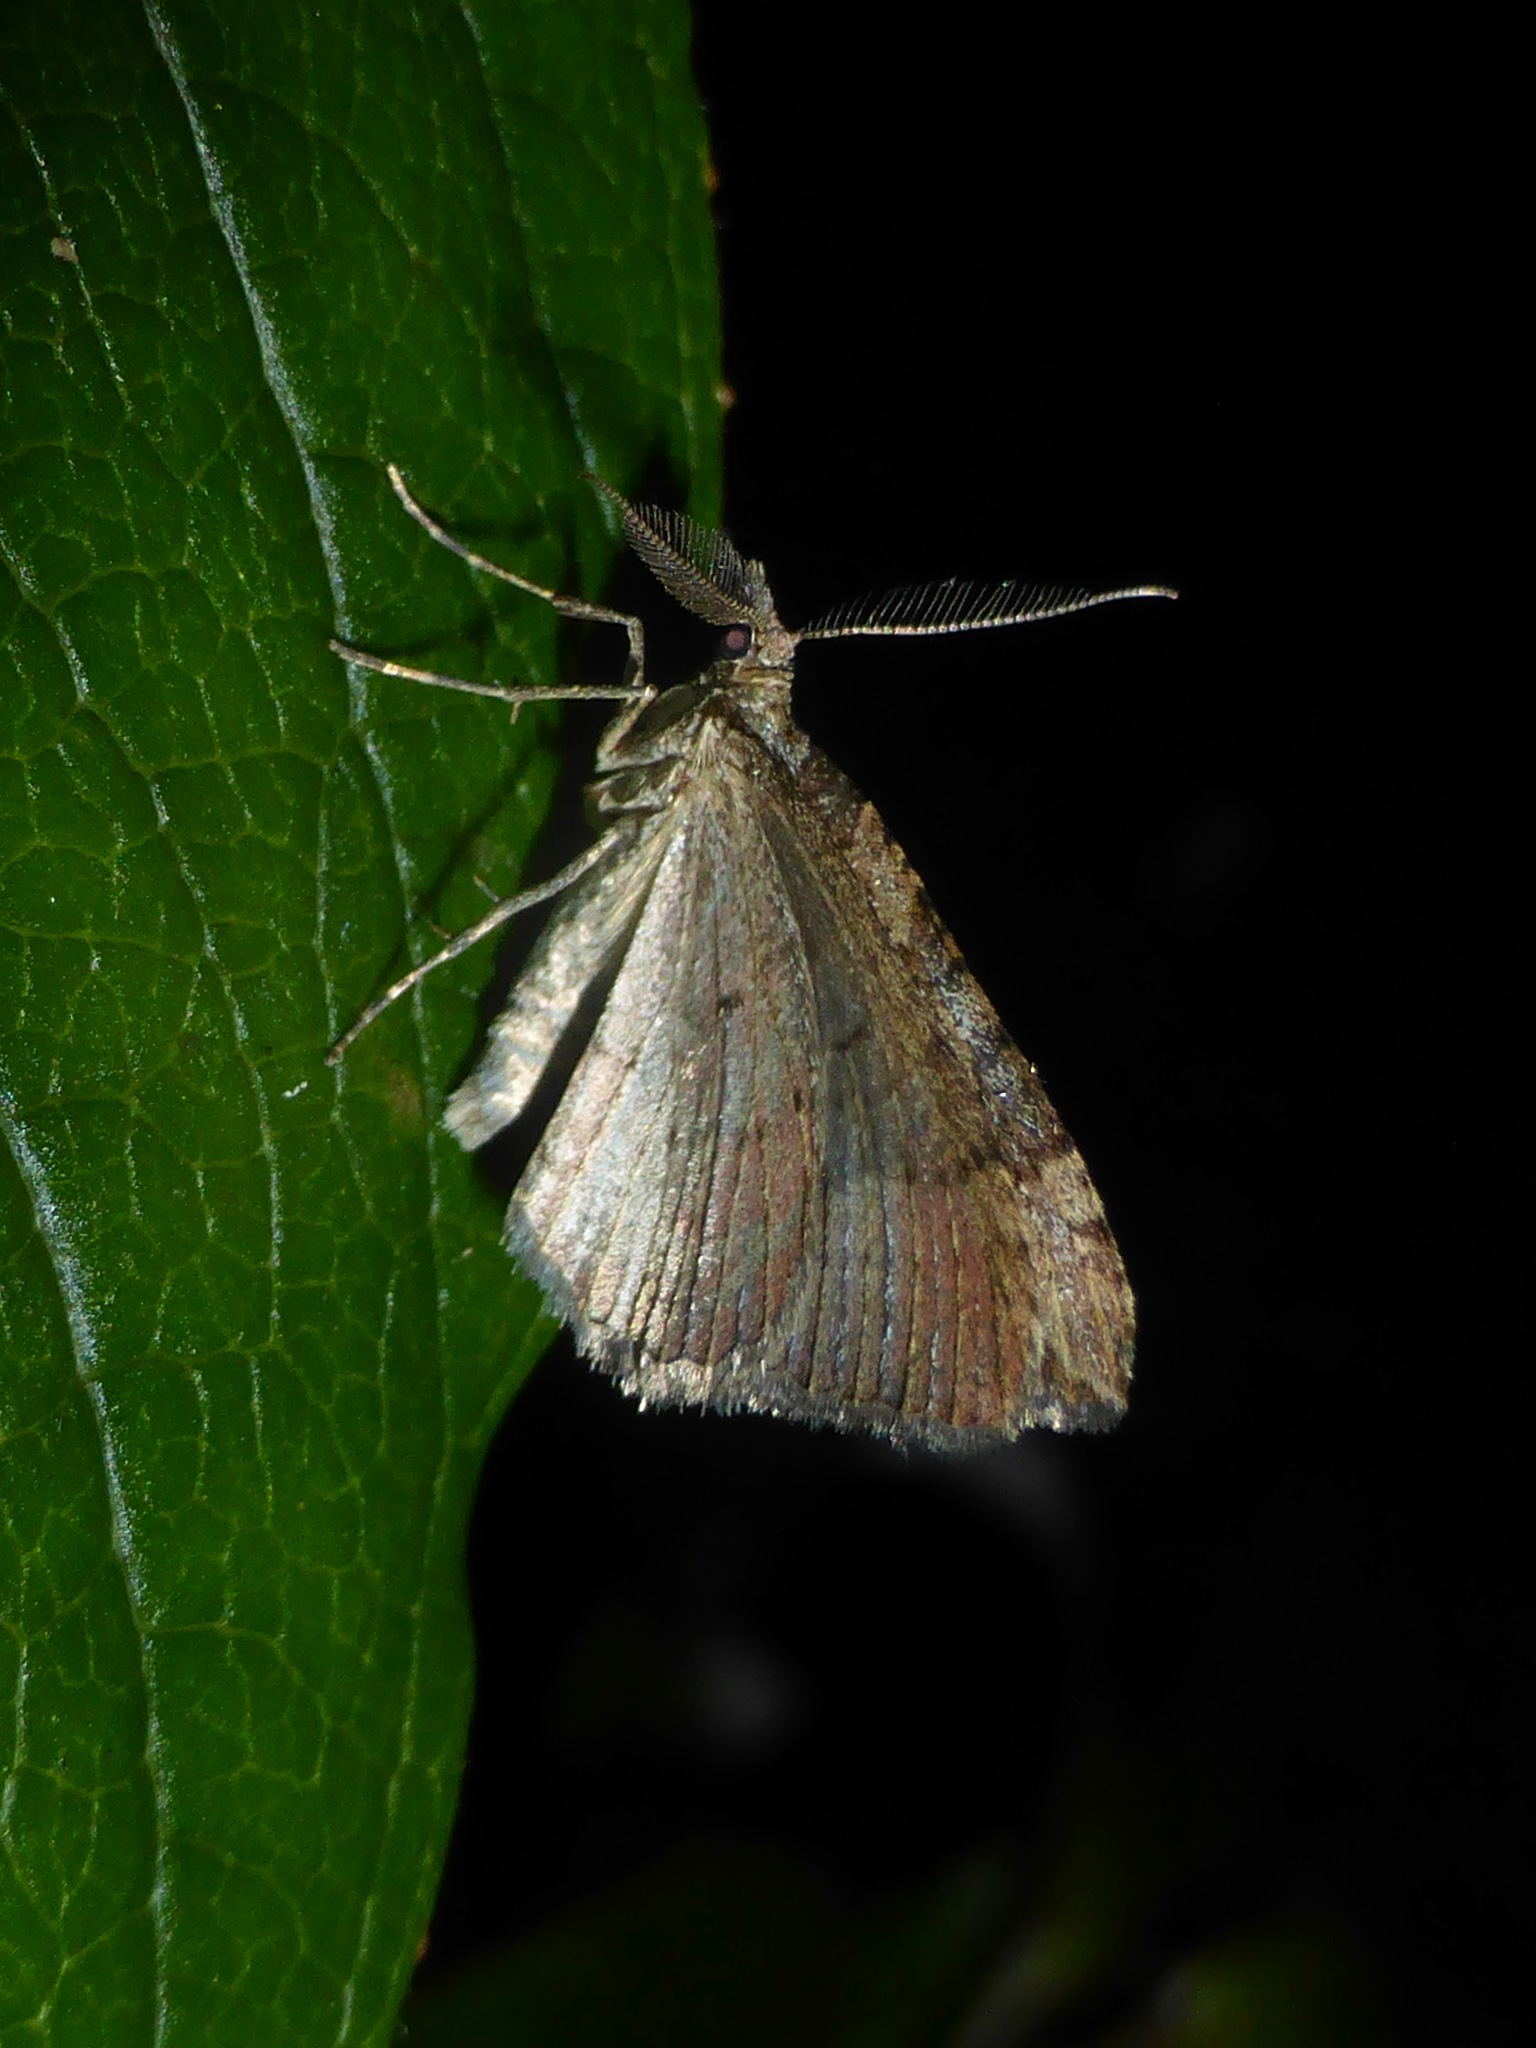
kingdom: Animalia
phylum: Arthropoda
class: Insecta
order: Lepidoptera
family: Geometridae
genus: Epyaxa
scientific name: Epyaxa rosearia
